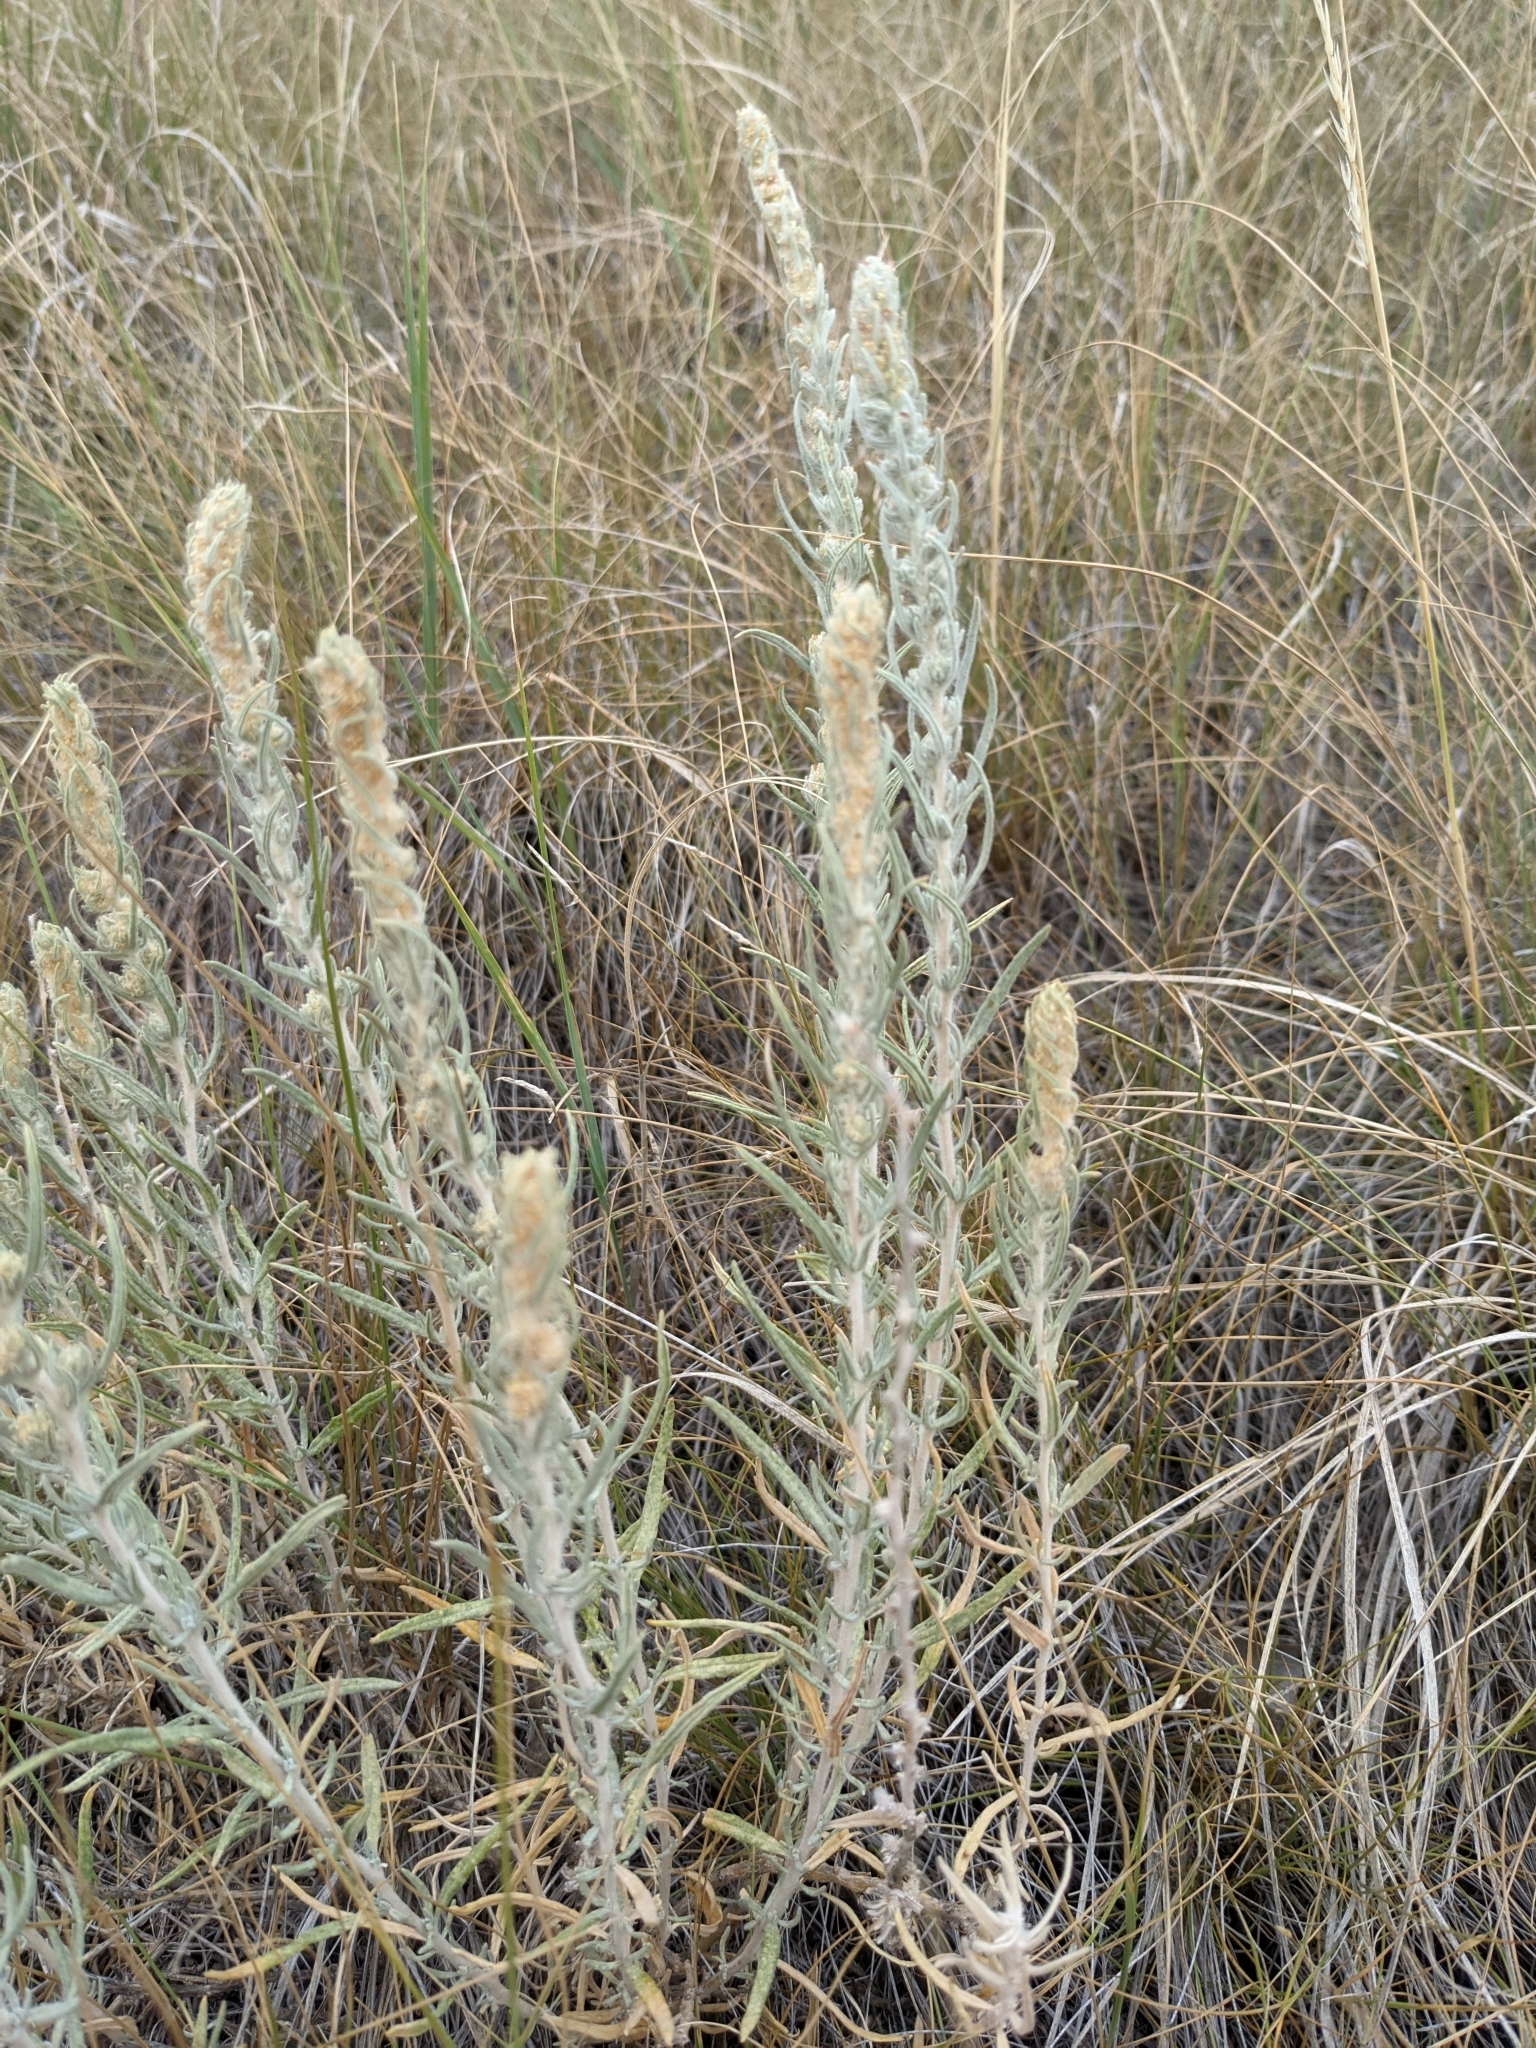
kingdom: Plantae
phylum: Tracheophyta
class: Magnoliopsida
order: Caryophyllales
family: Amaranthaceae
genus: Krascheninnikovia
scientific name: Krascheninnikovia lanata
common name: Winterfat
